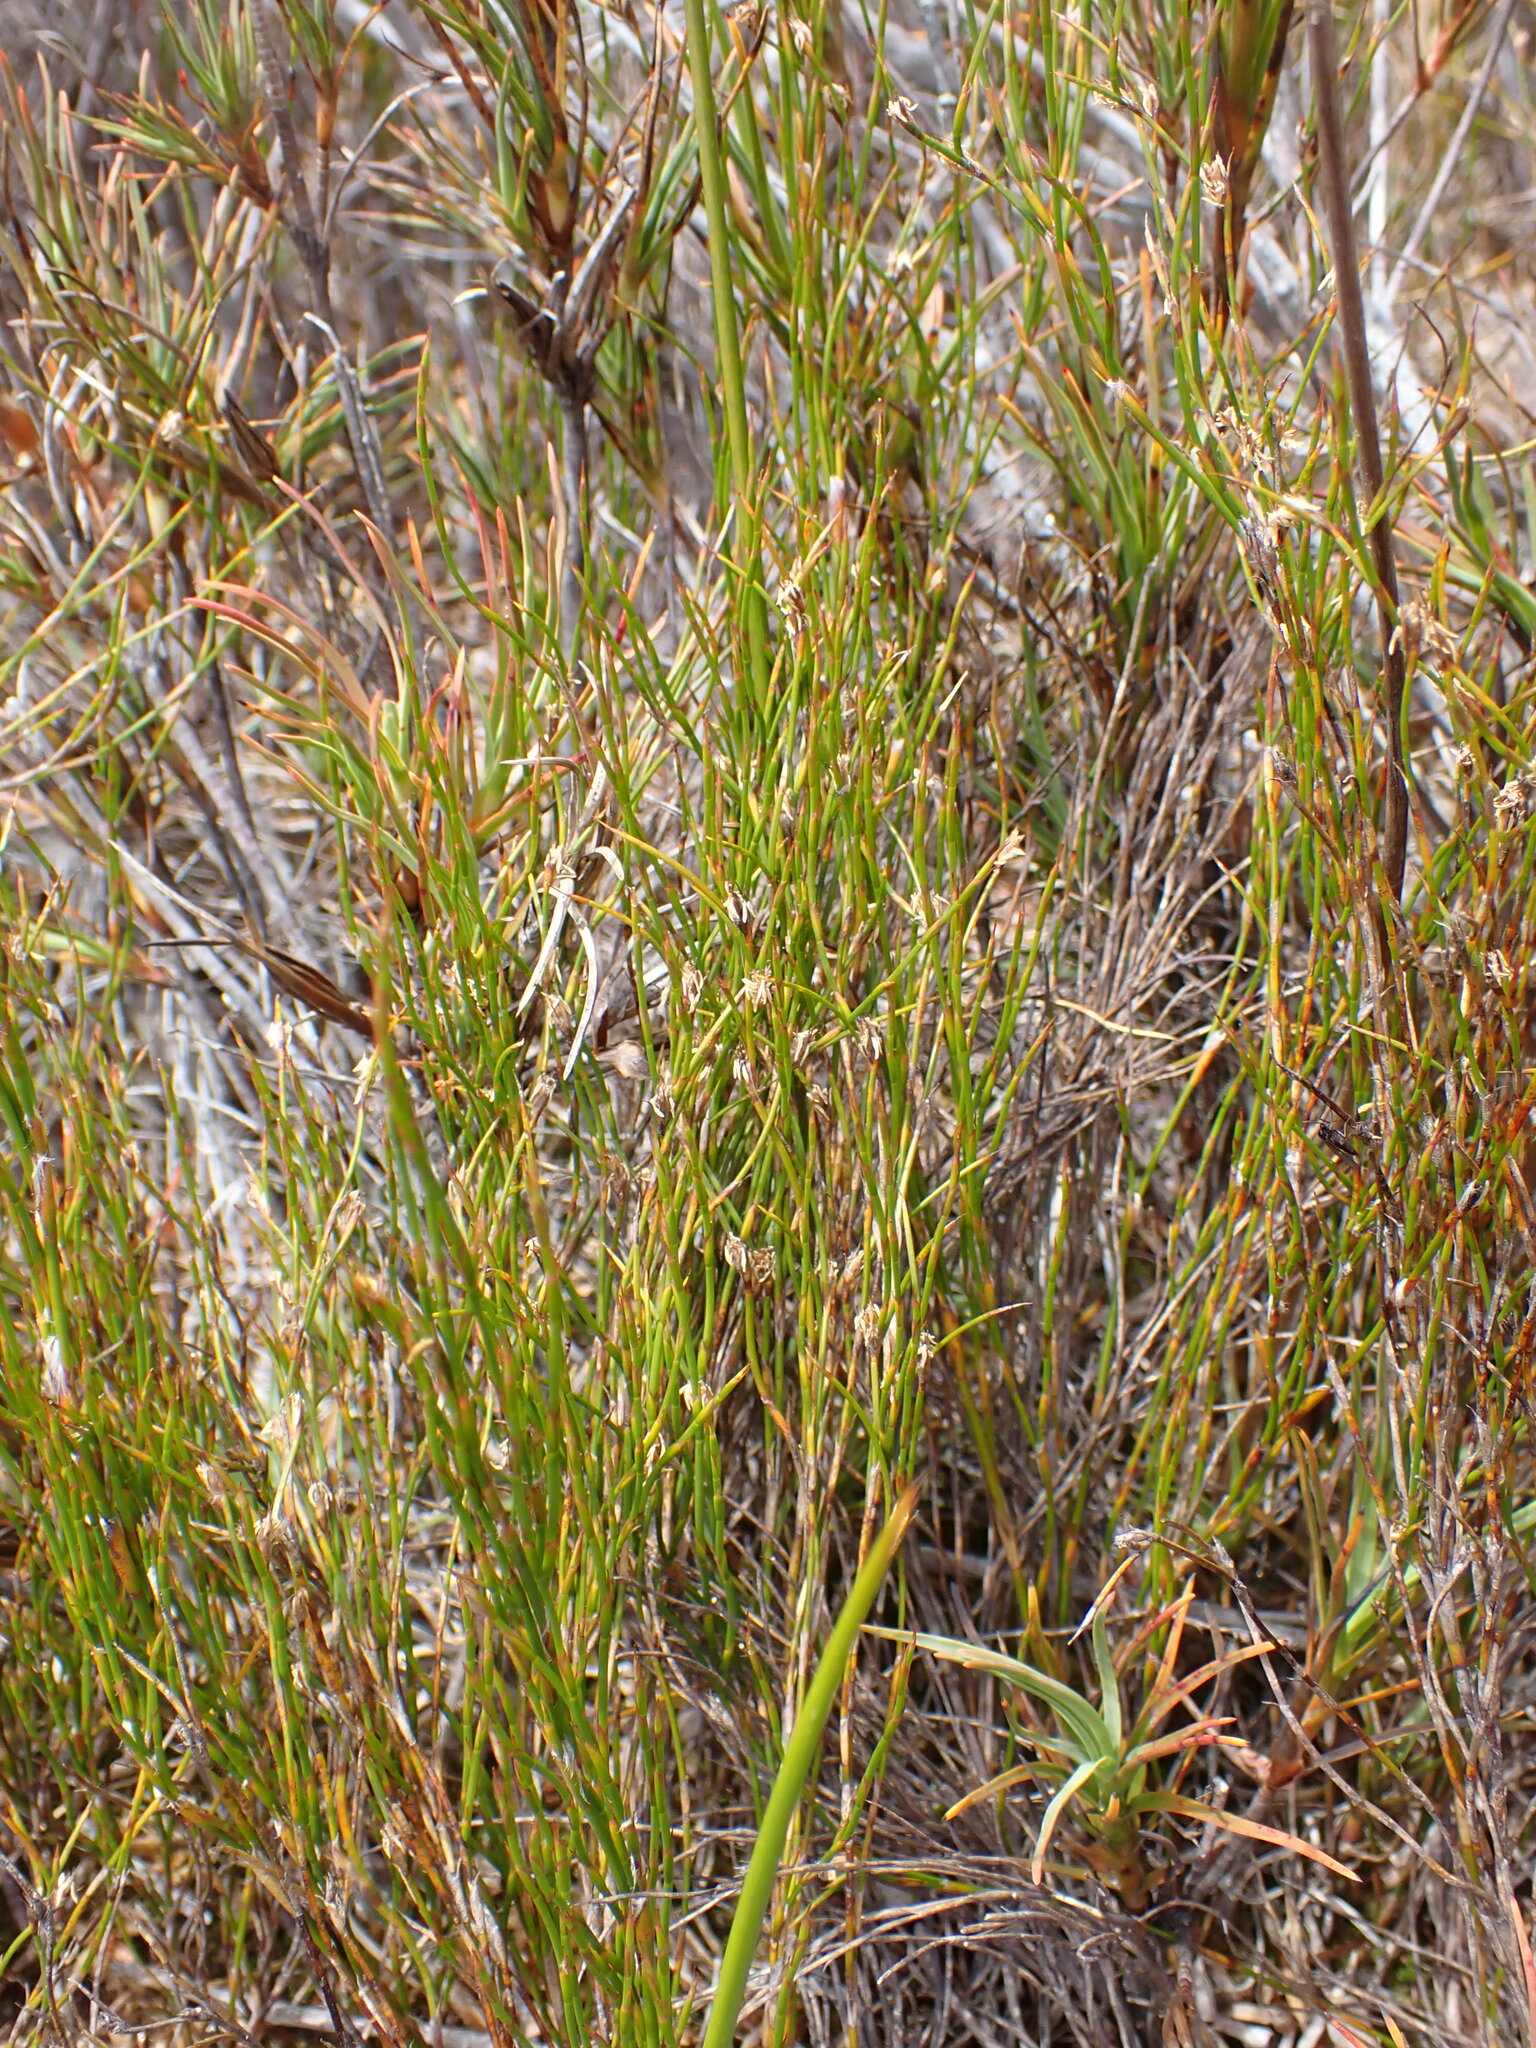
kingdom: Plantae
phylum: Tracheophyta
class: Liliopsida
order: Poales
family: Restionaceae
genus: Empodisma
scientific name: Empodisma minus
